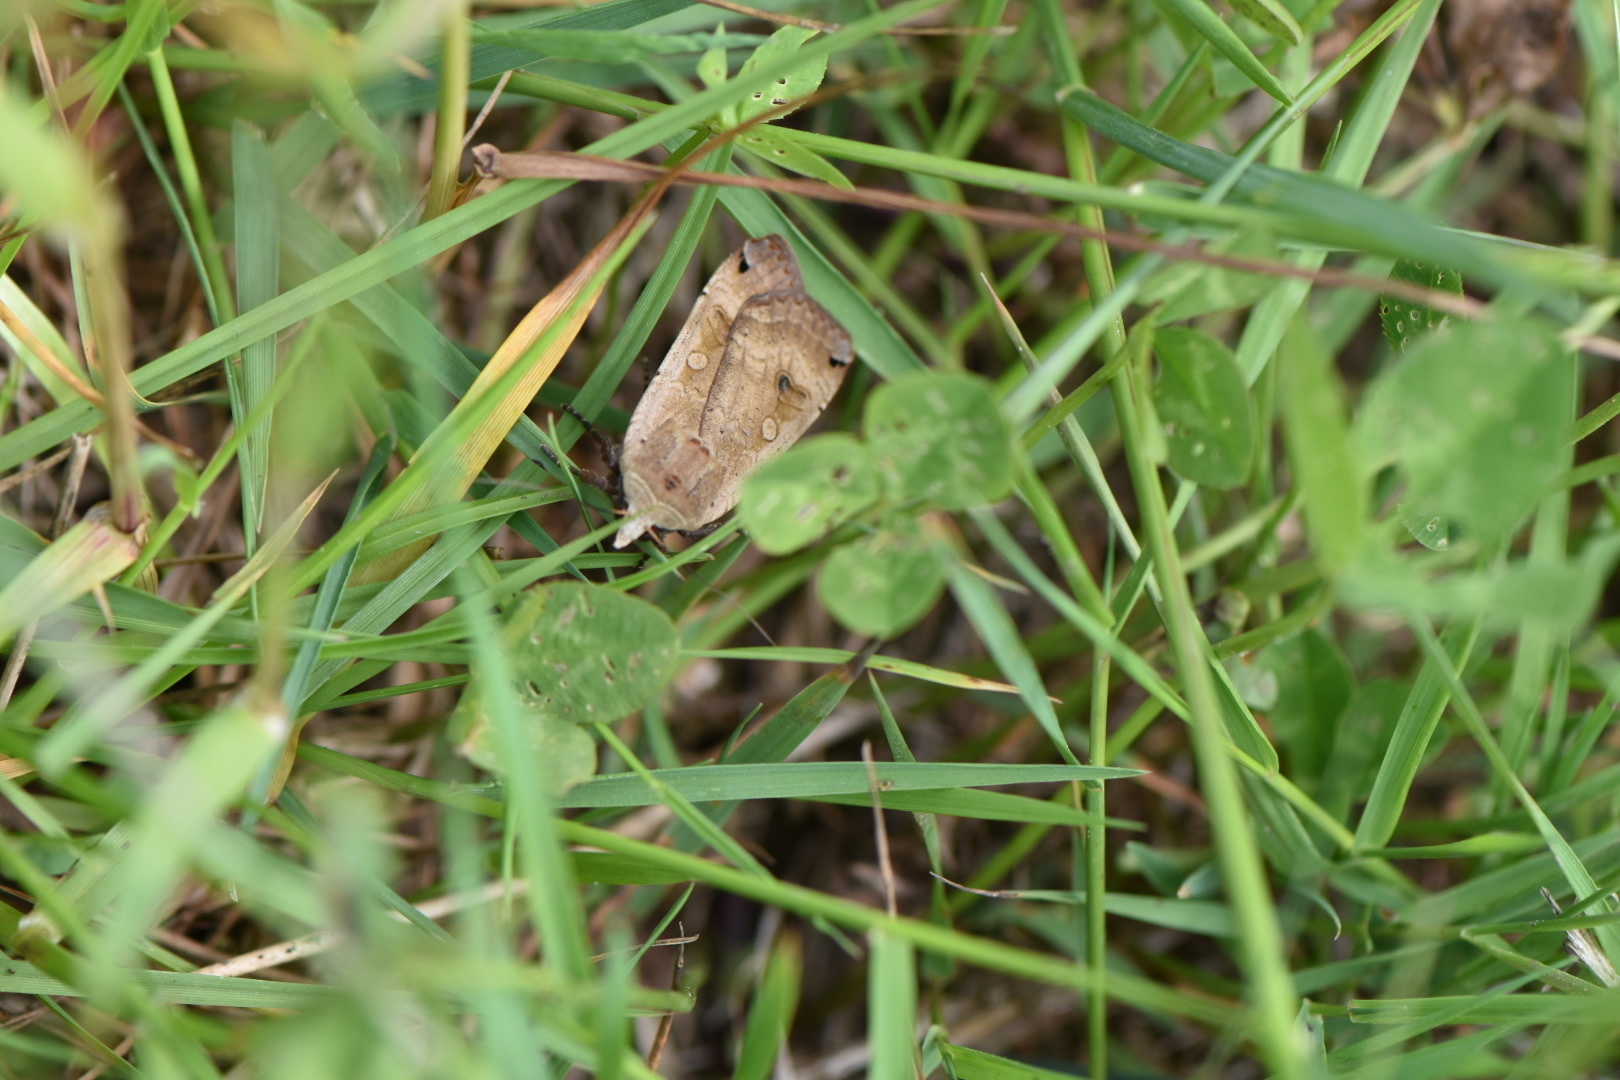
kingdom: Animalia
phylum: Arthropoda
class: Insecta
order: Lepidoptera
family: Noctuidae
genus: Noctua
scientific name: Noctua pronuba
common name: Large yellow underwing
